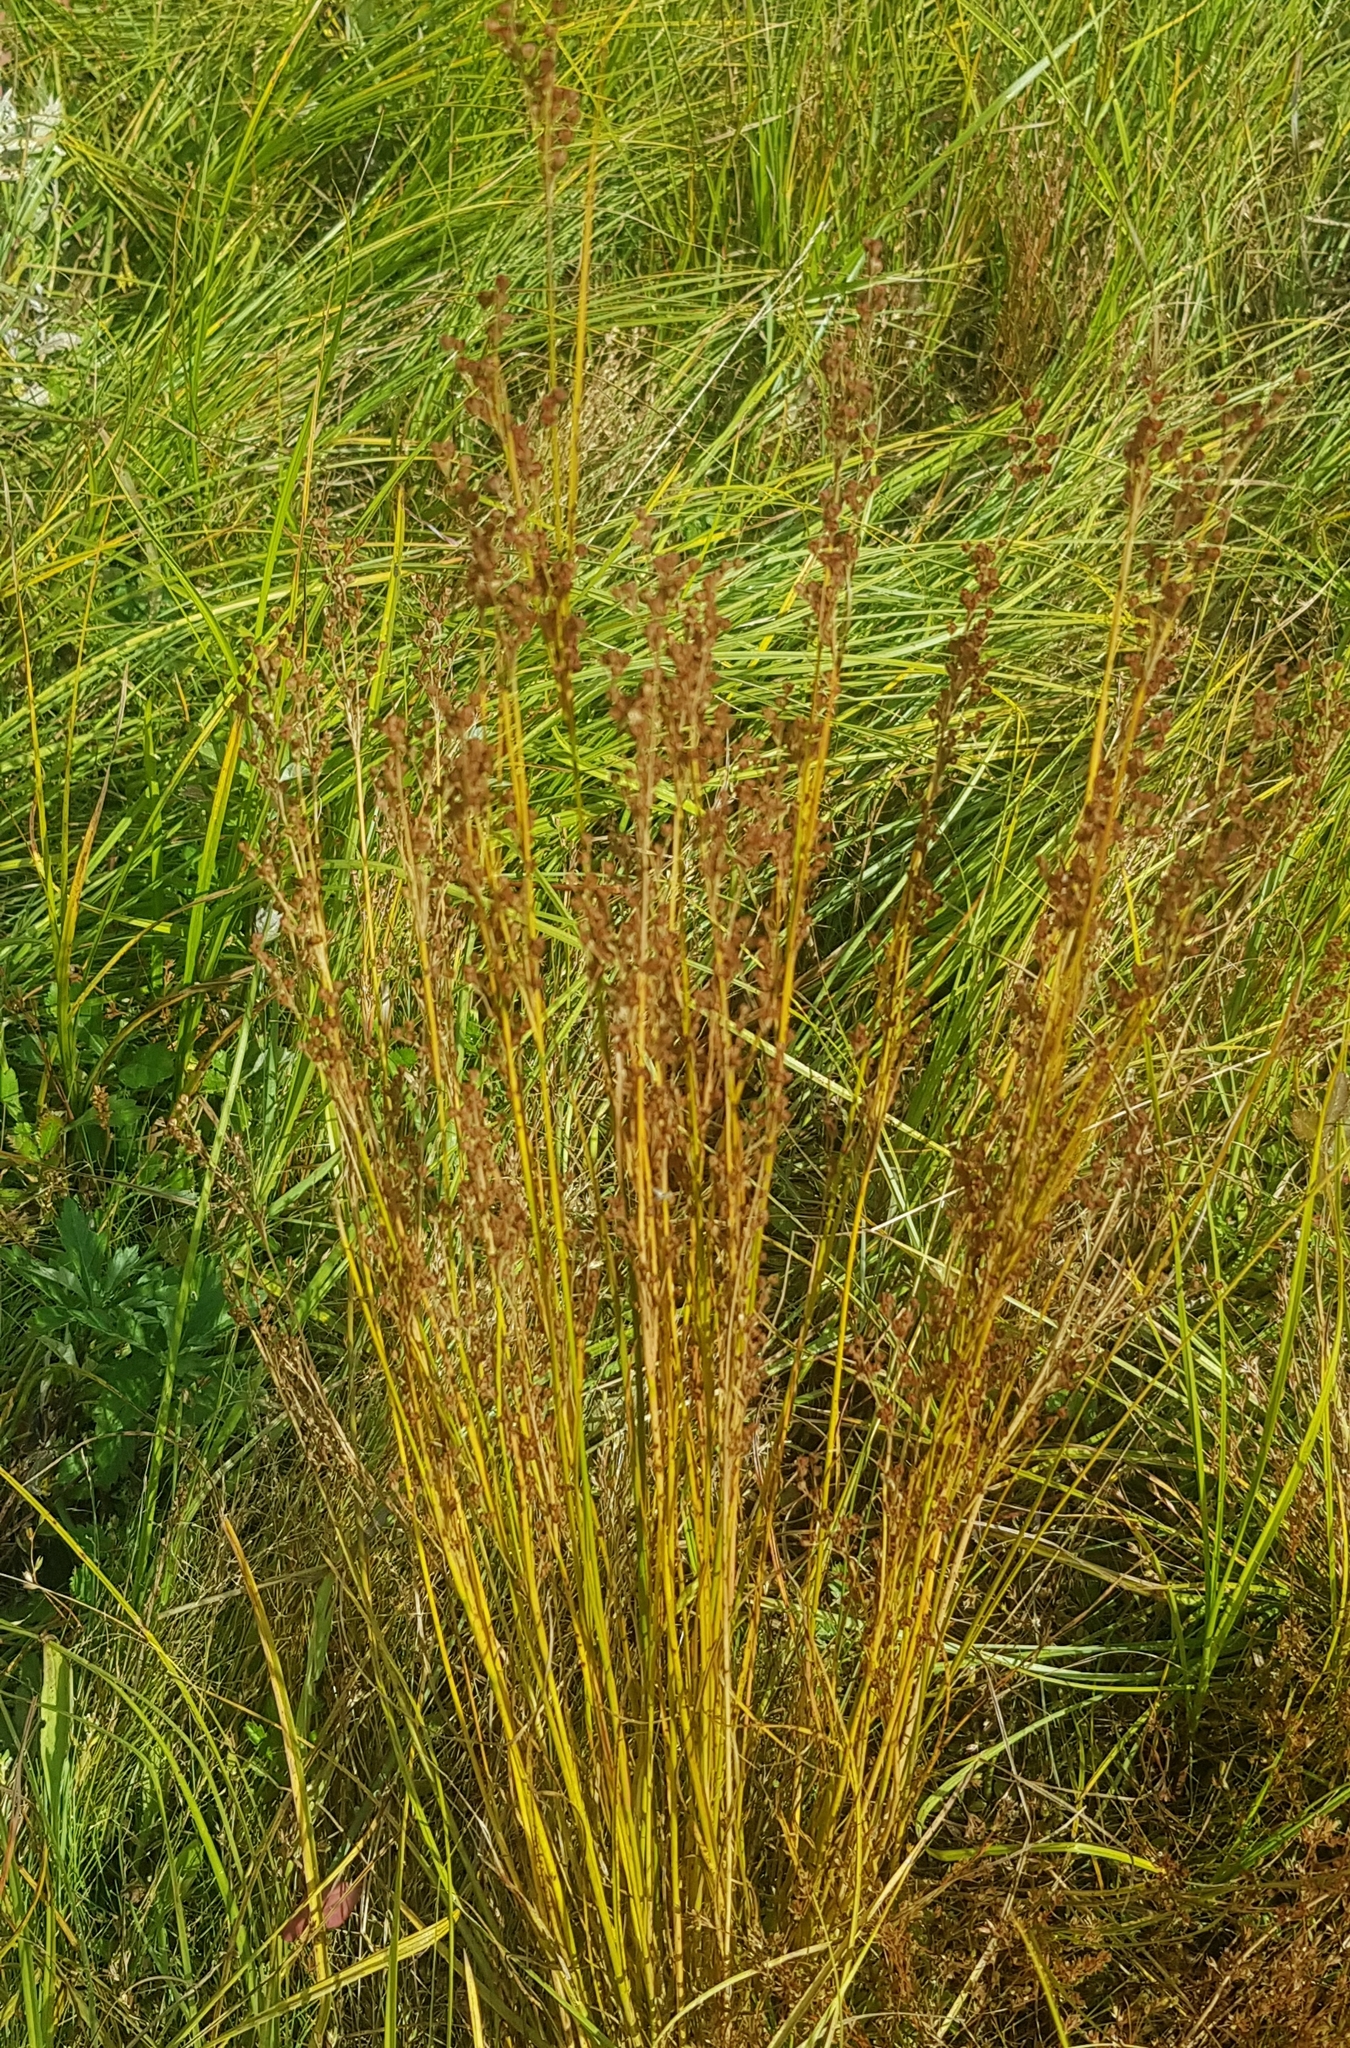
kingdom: Plantae
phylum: Tracheophyta
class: Liliopsida
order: Poales
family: Juncaceae
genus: Juncus
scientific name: Juncus bufonius
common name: Toad rush
